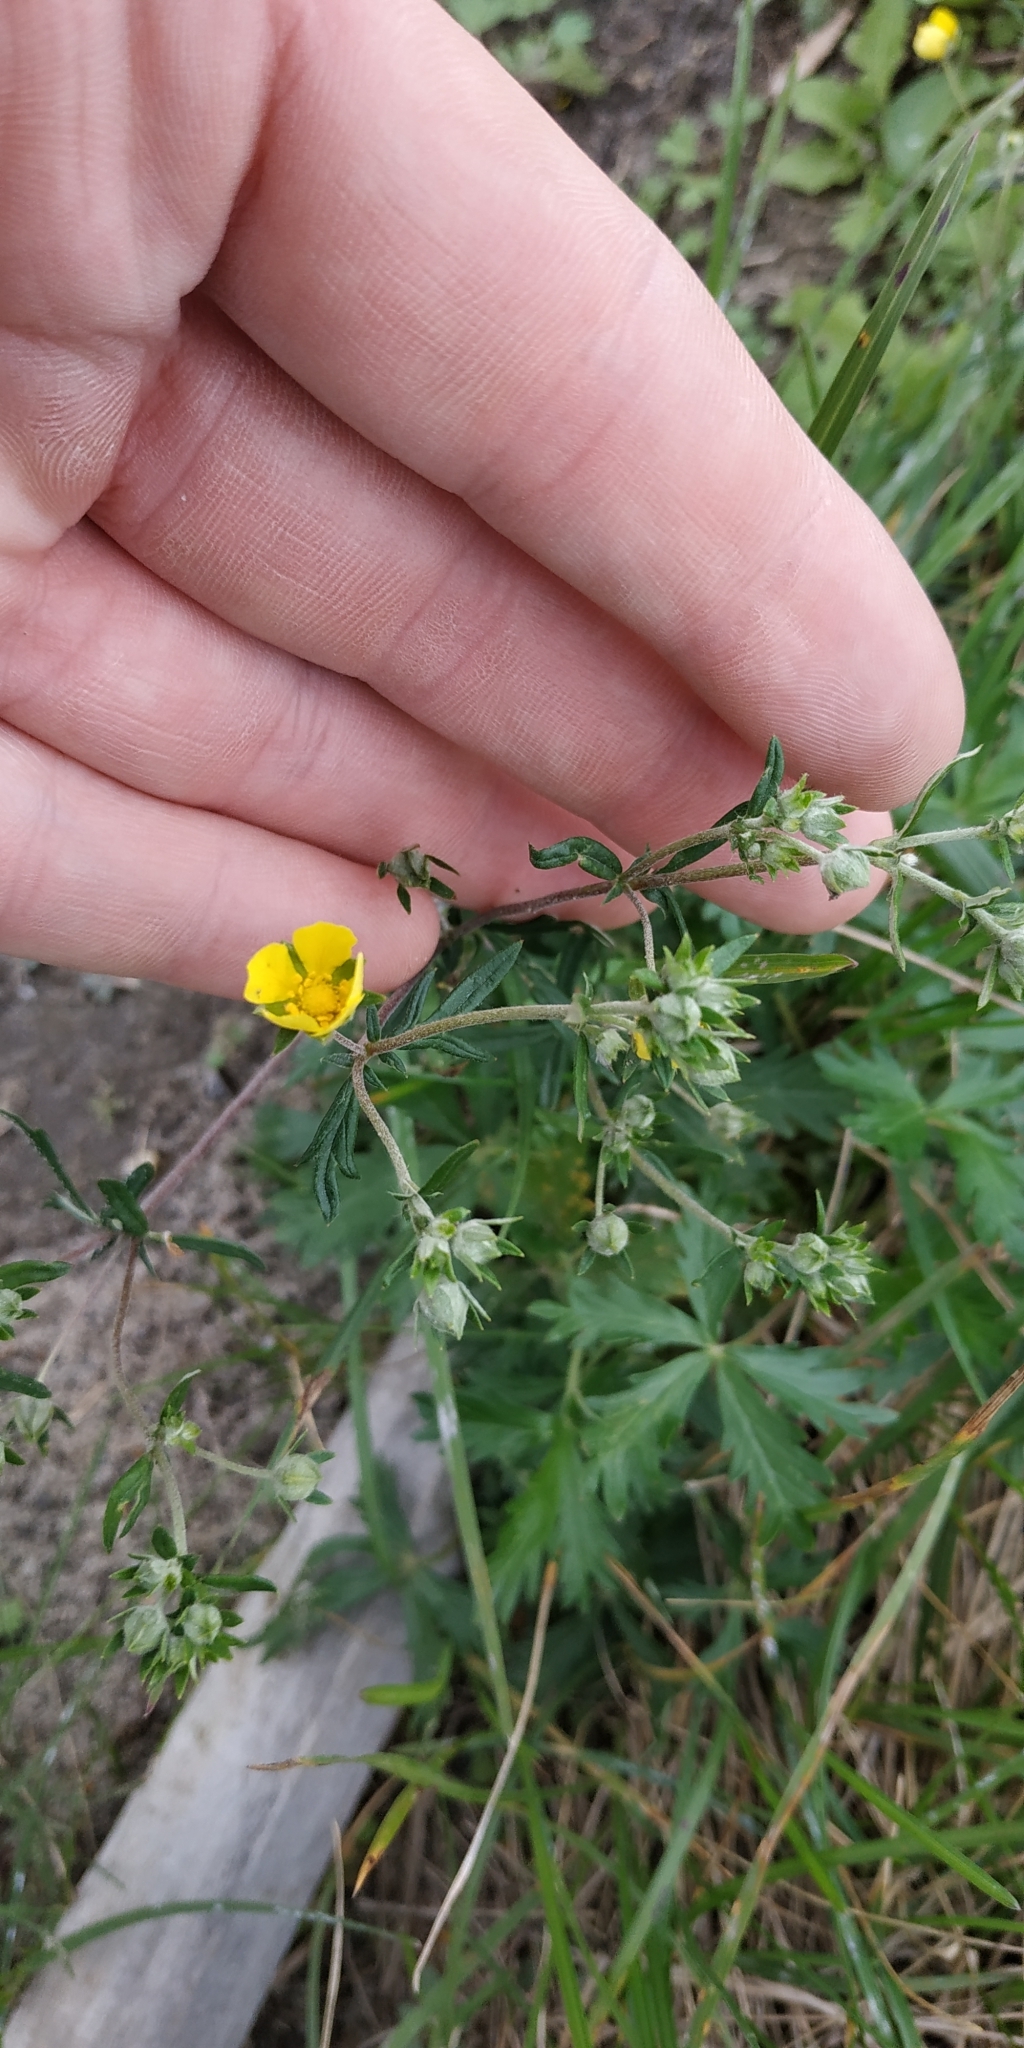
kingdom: Plantae
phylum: Tracheophyta
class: Magnoliopsida
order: Rosales
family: Rosaceae
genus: Potentilla
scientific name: Potentilla argentea
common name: Hoary cinquefoil
